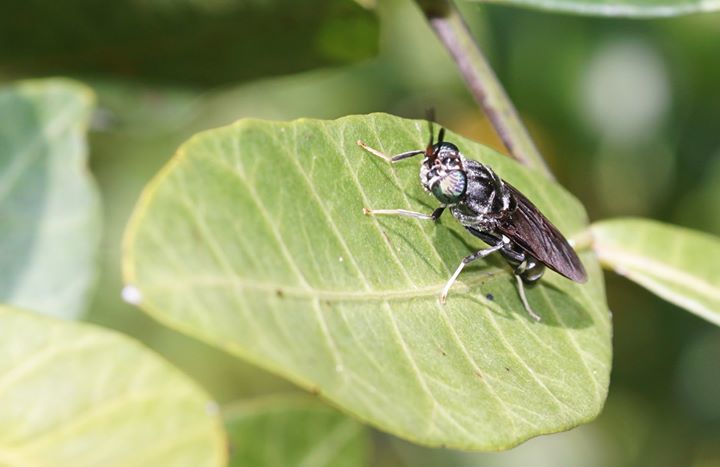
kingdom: Animalia
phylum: Arthropoda
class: Insecta
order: Diptera
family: Stratiomyidae
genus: Hermetia
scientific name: Hermetia illucens
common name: Black soldier fly
